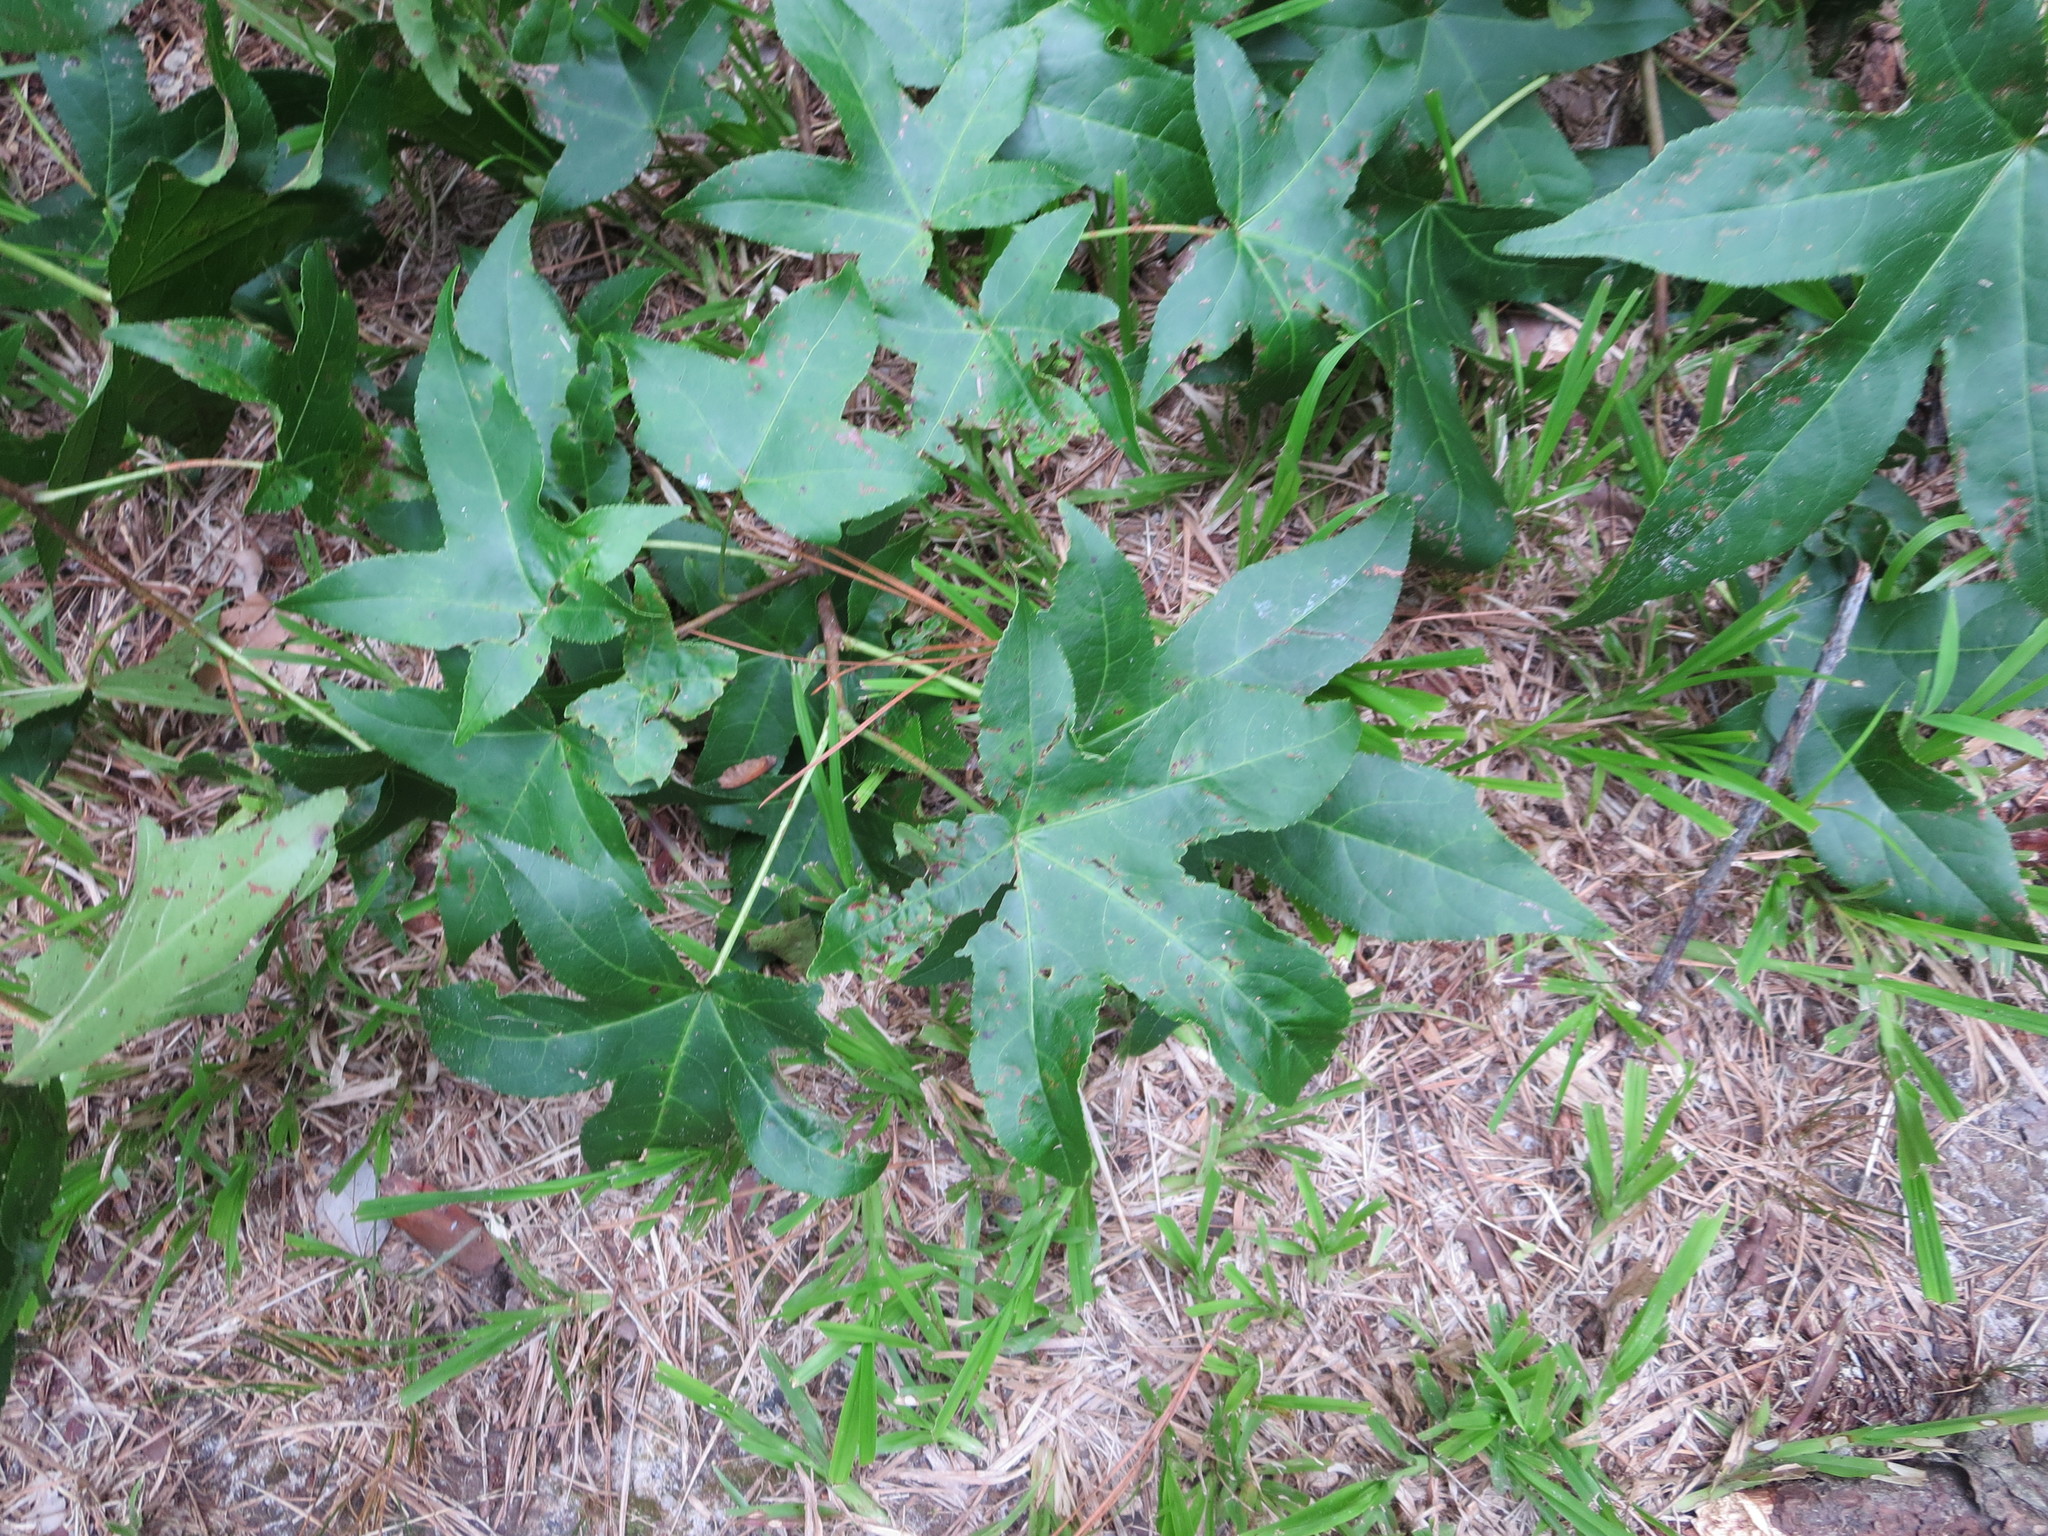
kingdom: Plantae
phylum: Tracheophyta
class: Magnoliopsida
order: Saxifragales
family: Altingiaceae
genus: Liquidambar
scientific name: Liquidambar styraciflua
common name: Sweet gum
